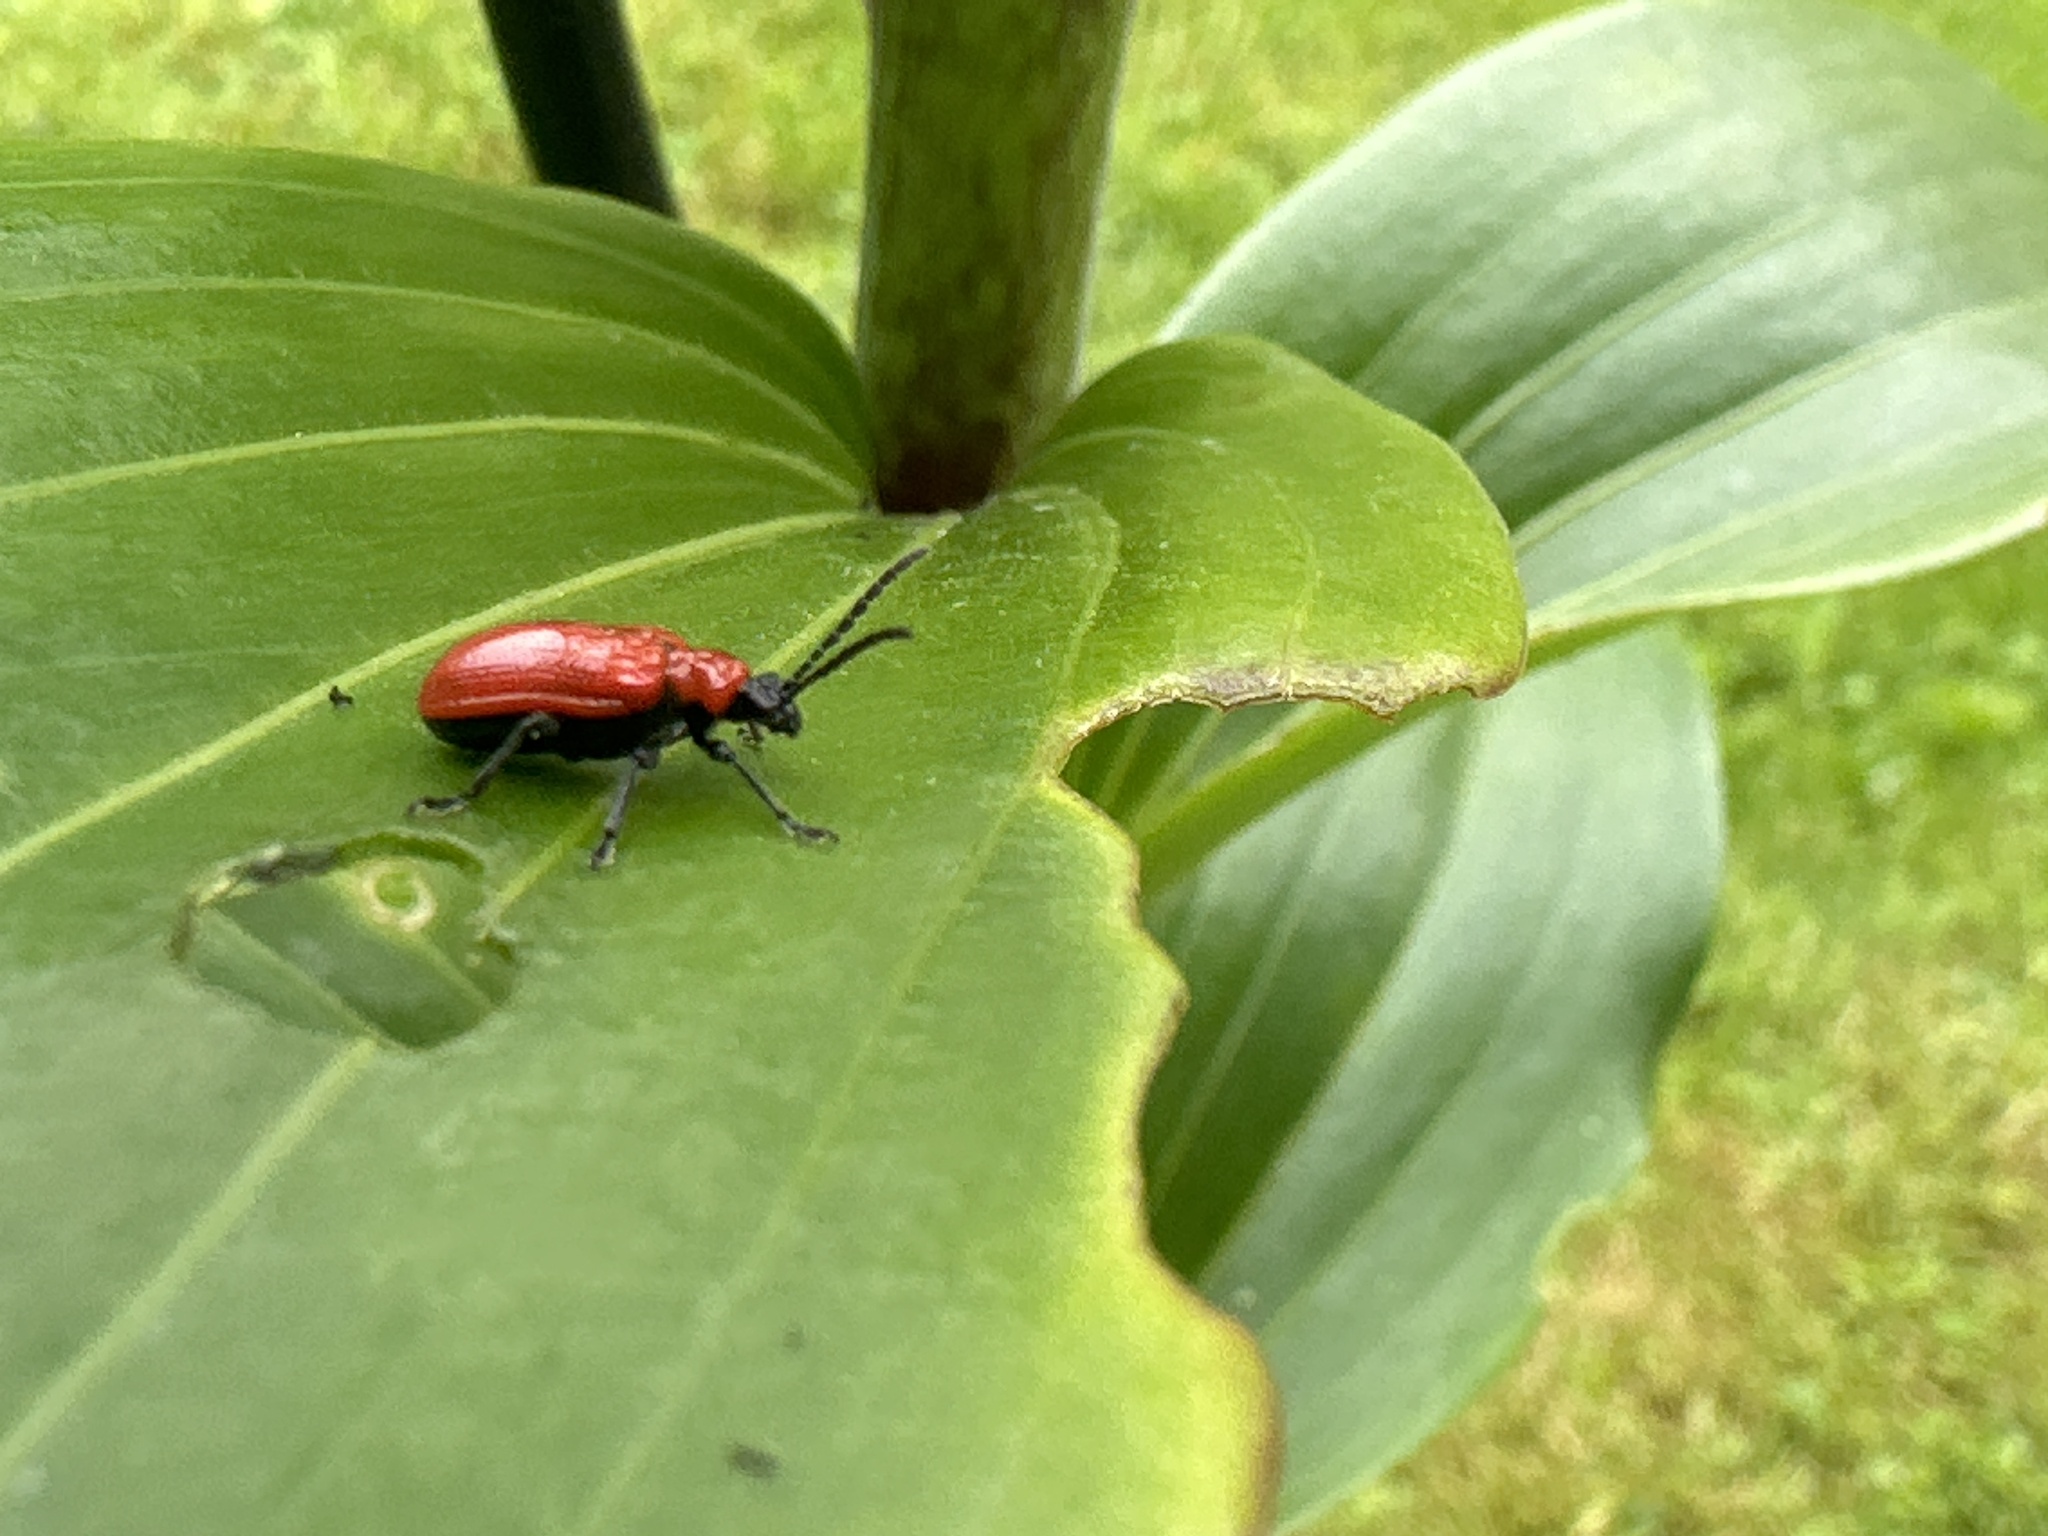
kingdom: Animalia
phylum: Arthropoda
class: Insecta
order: Coleoptera
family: Chrysomelidae
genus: Lilioceris
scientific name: Lilioceris lilii
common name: Lily beetle
